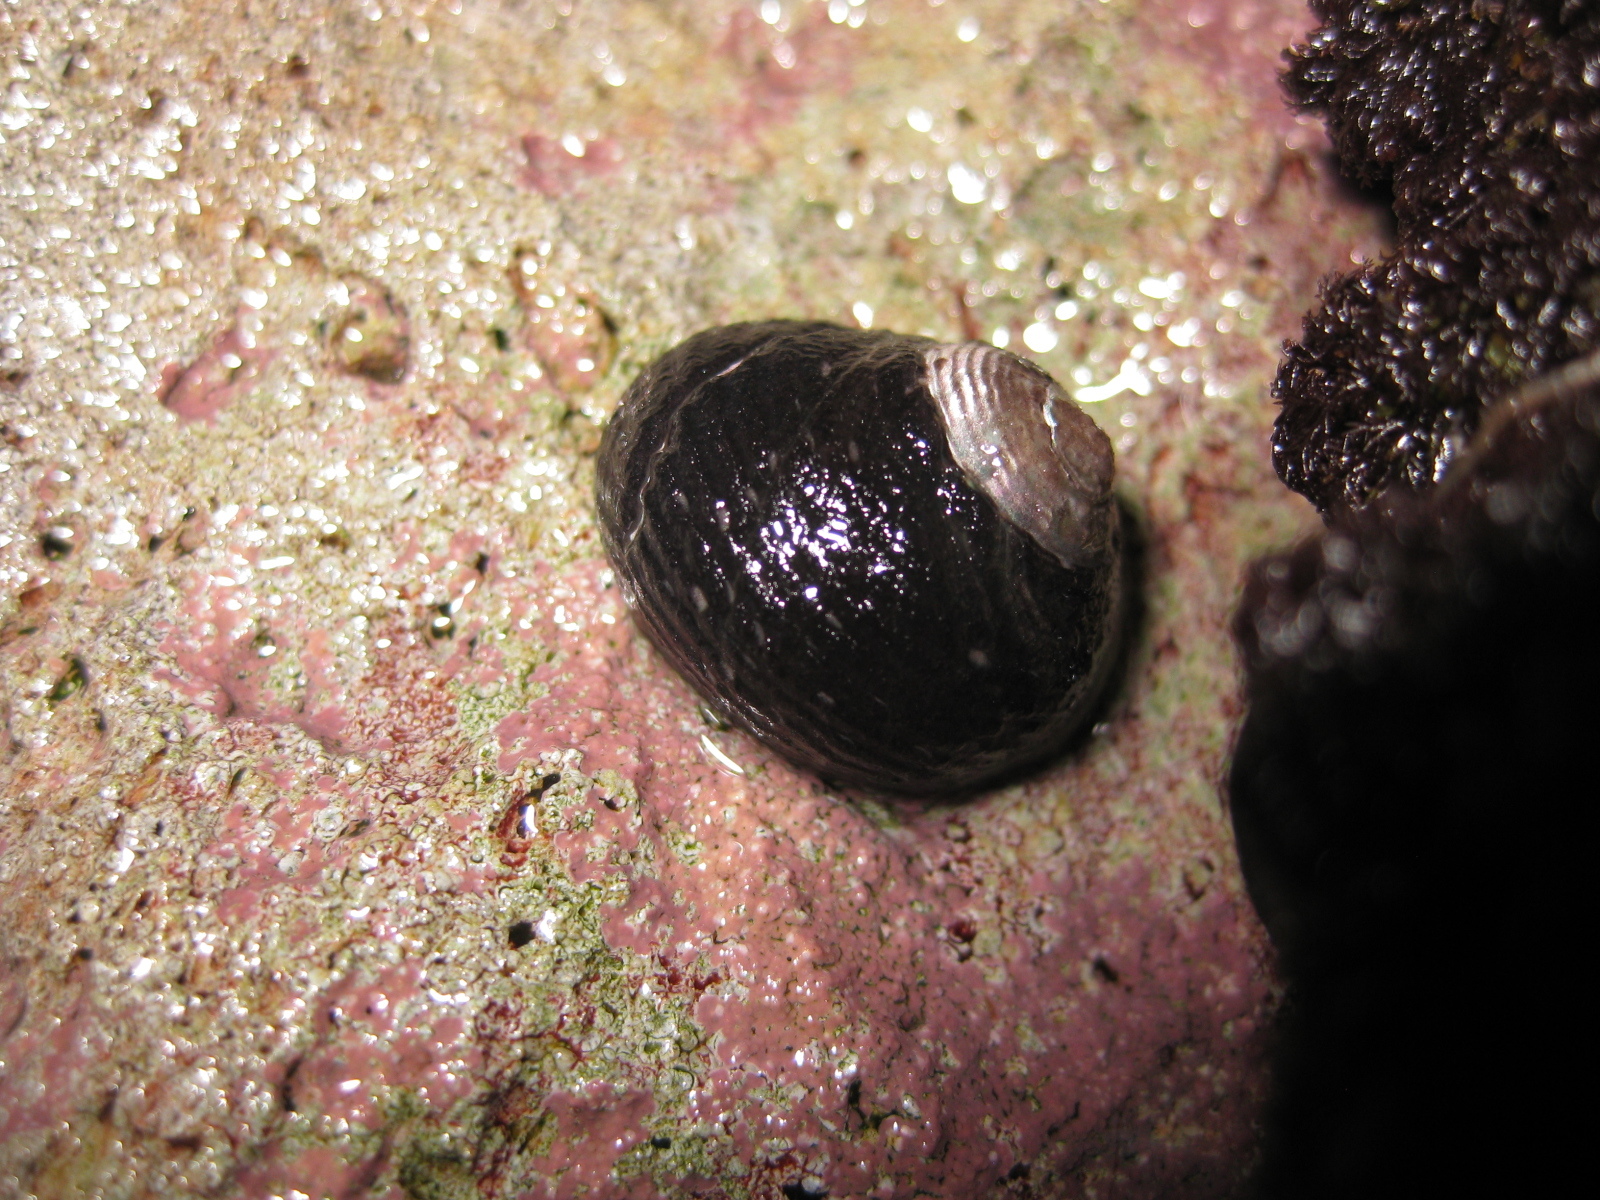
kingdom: Animalia
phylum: Mollusca
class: Gastropoda
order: Trochida
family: Trochidae
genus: Diloma
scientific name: Diloma zelandicum
